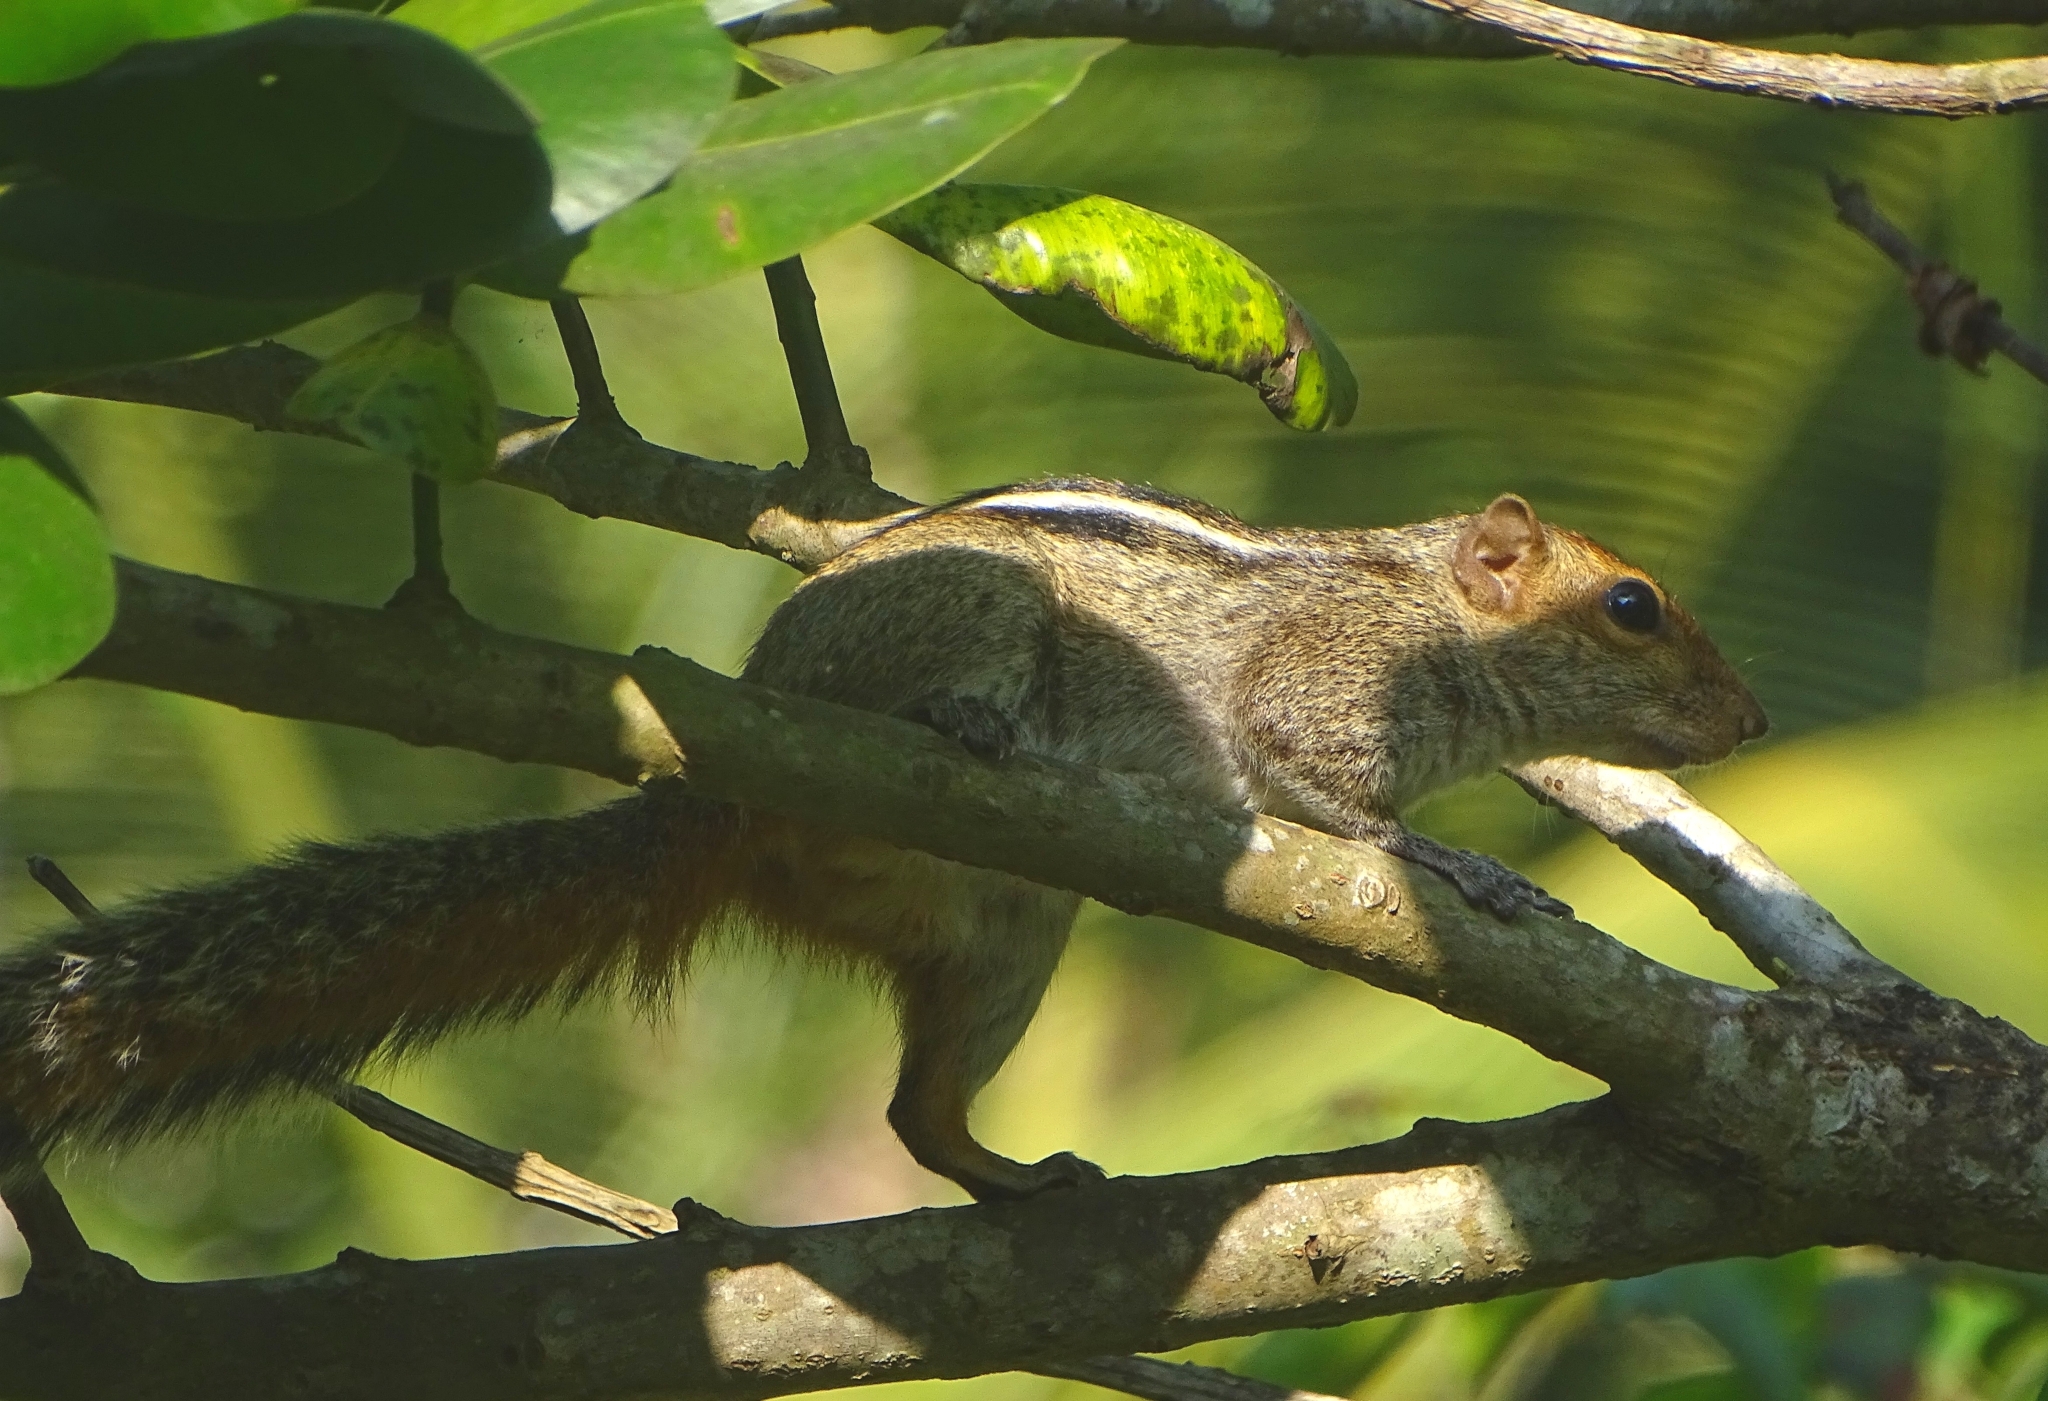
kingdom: Animalia
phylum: Chordata
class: Mammalia
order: Rodentia
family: Sciuridae
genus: Funambulus
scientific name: Funambulus tristriatus
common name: Jungle palm squirrel
